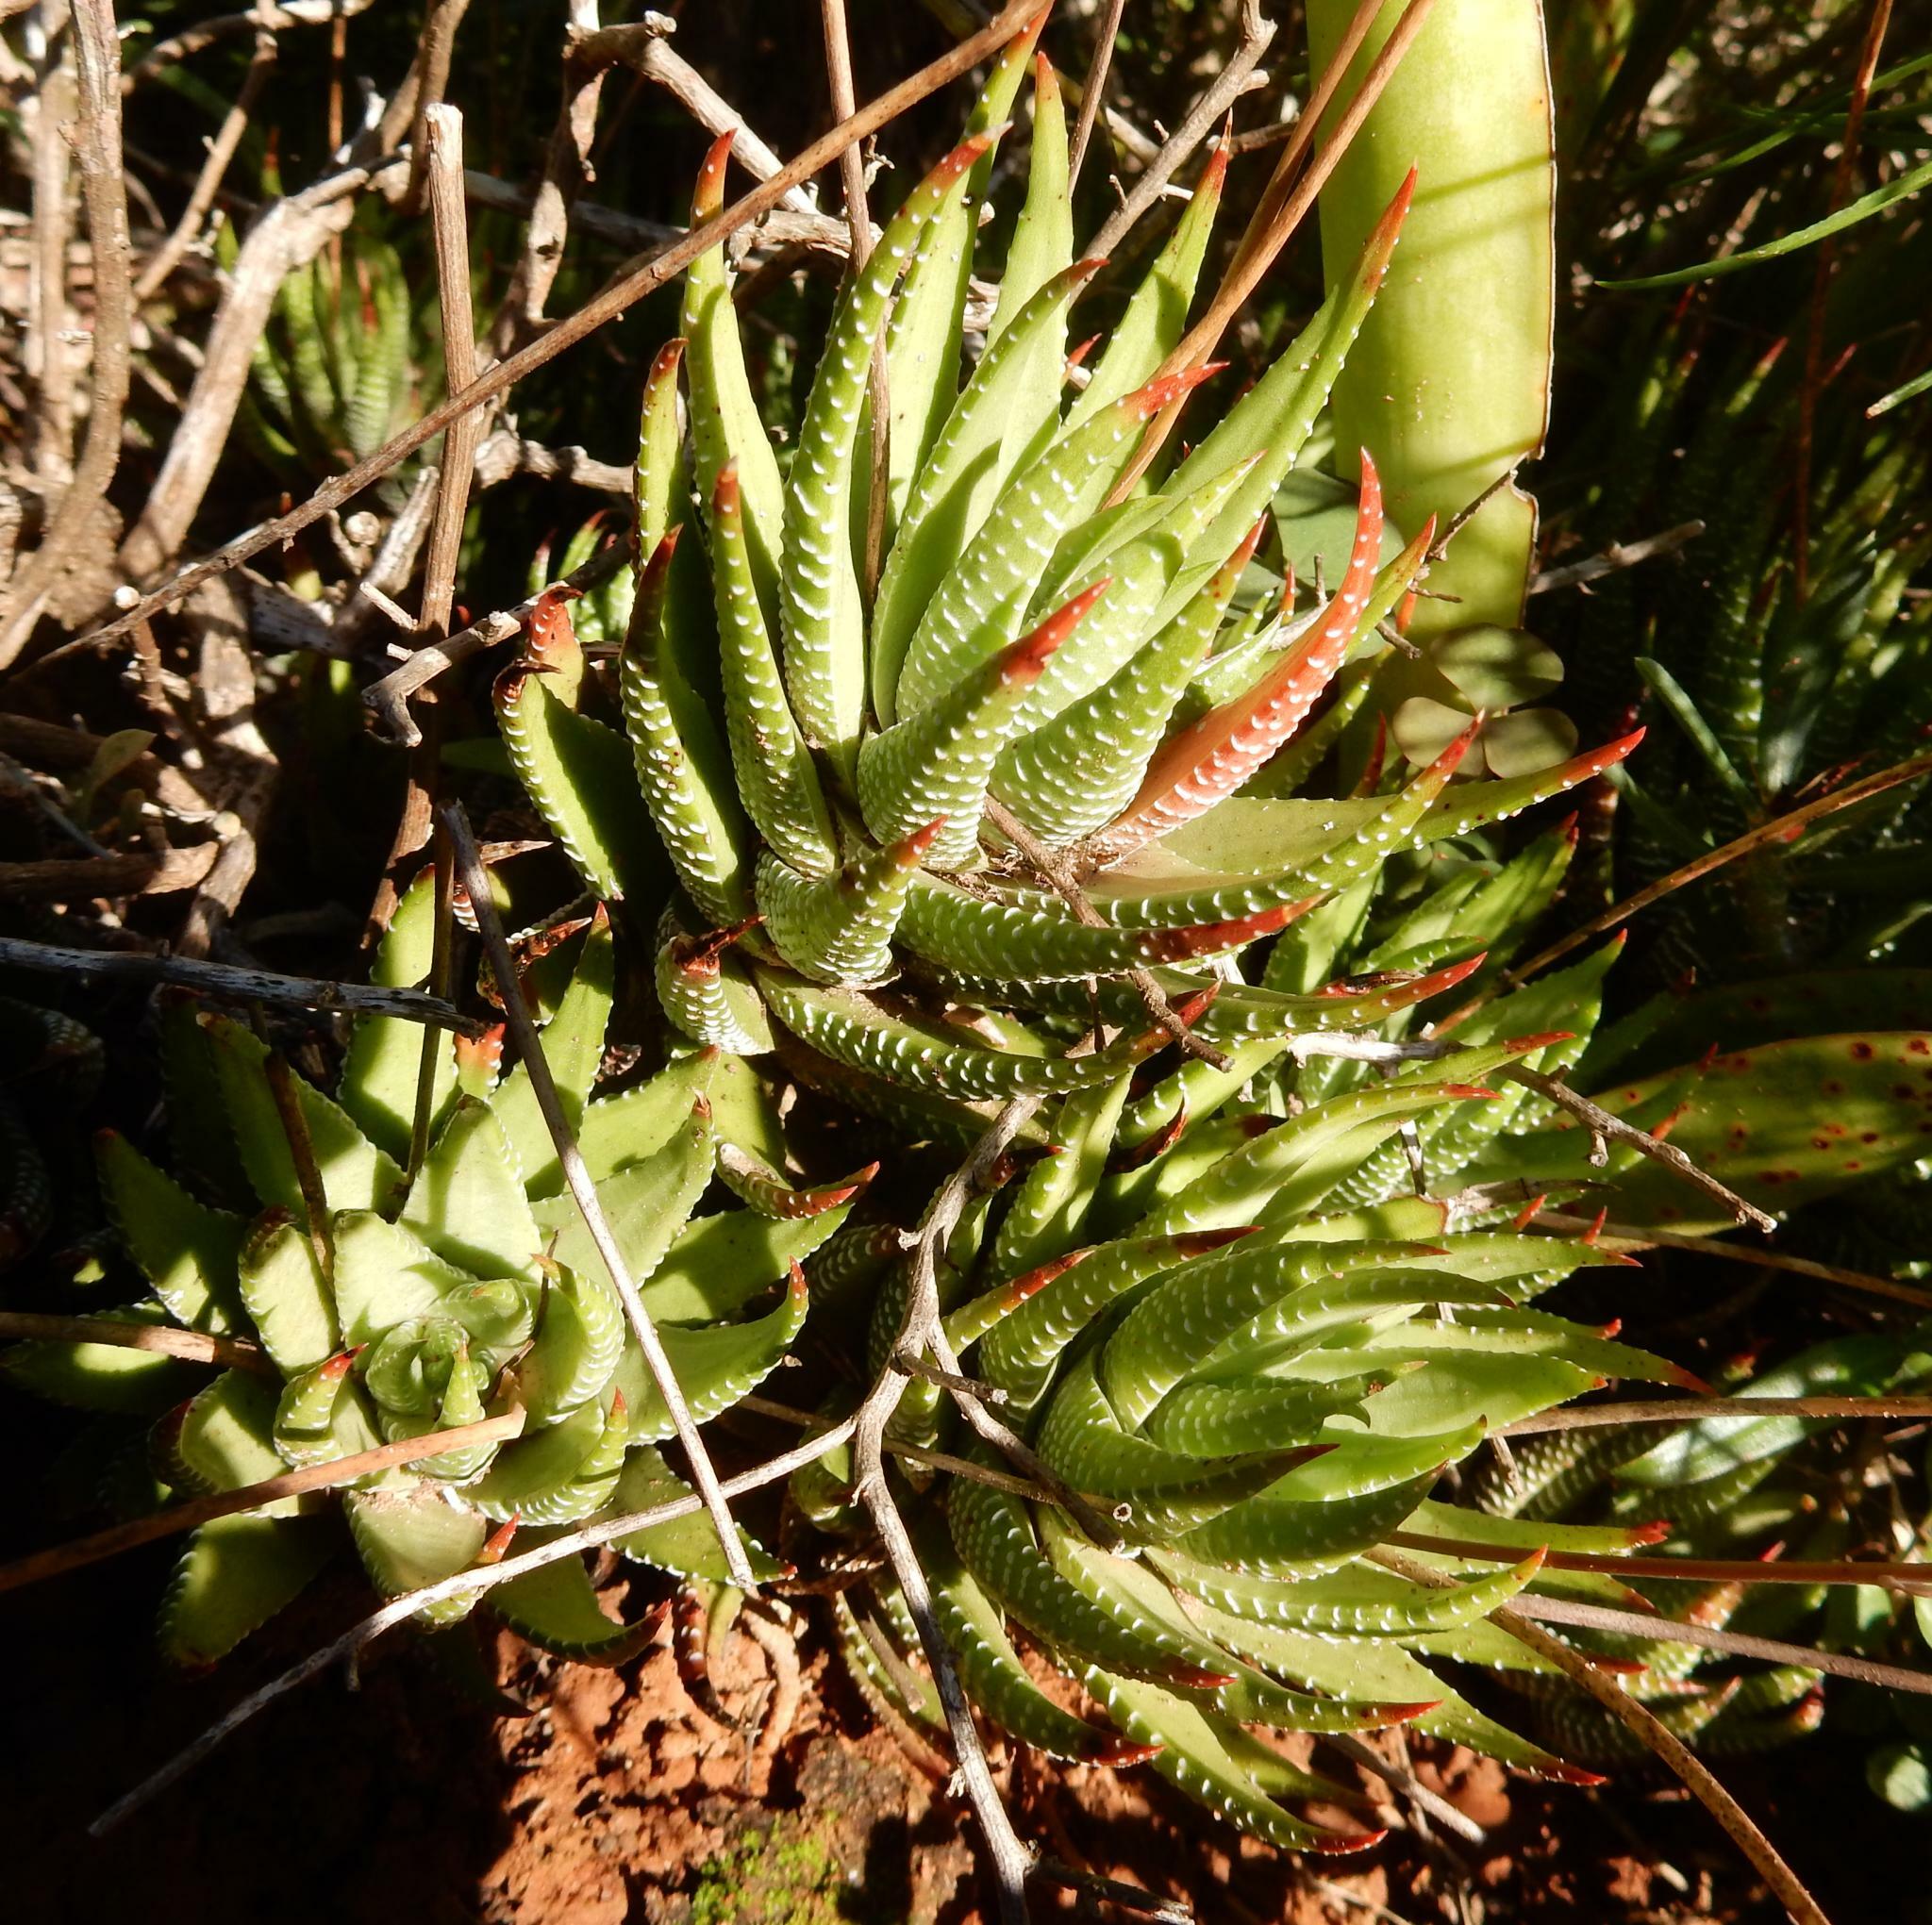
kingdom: Plantae
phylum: Tracheophyta
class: Liliopsida
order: Asparagales
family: Asphodelaceae
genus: Haworthiopsis
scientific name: Haworthiopsis coarctata
